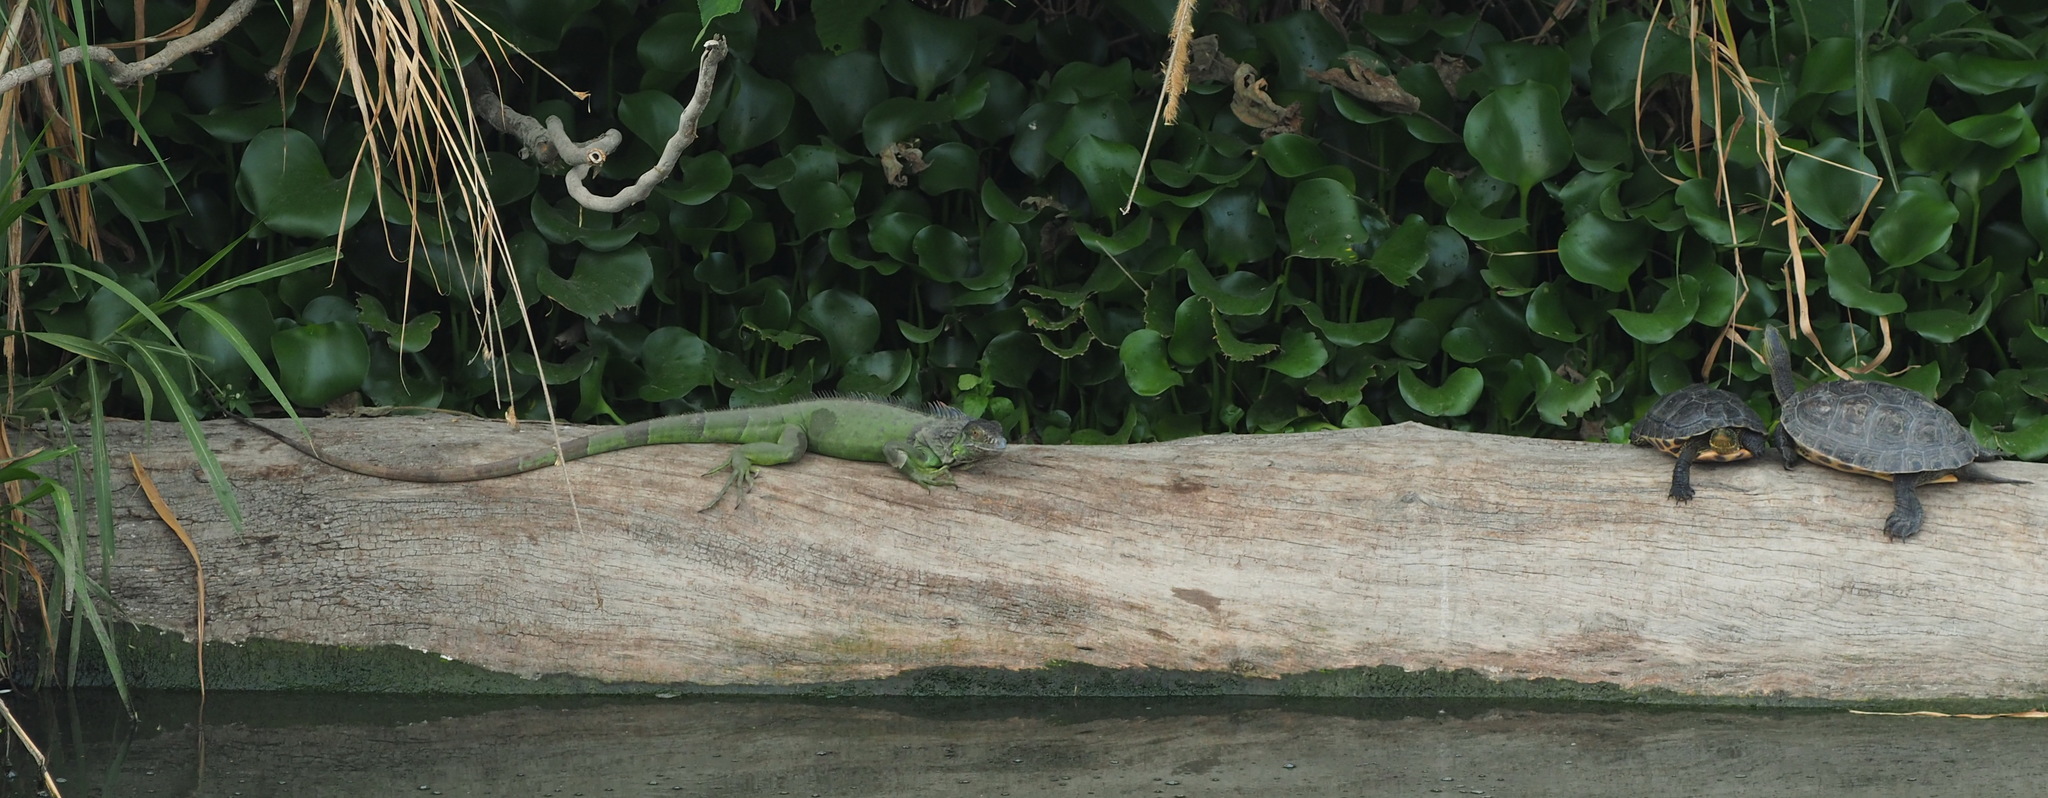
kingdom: Animalia
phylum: Chordata
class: Squamata
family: Iguanidae
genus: Iguana
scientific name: Iguana iguana
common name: Green iguana
